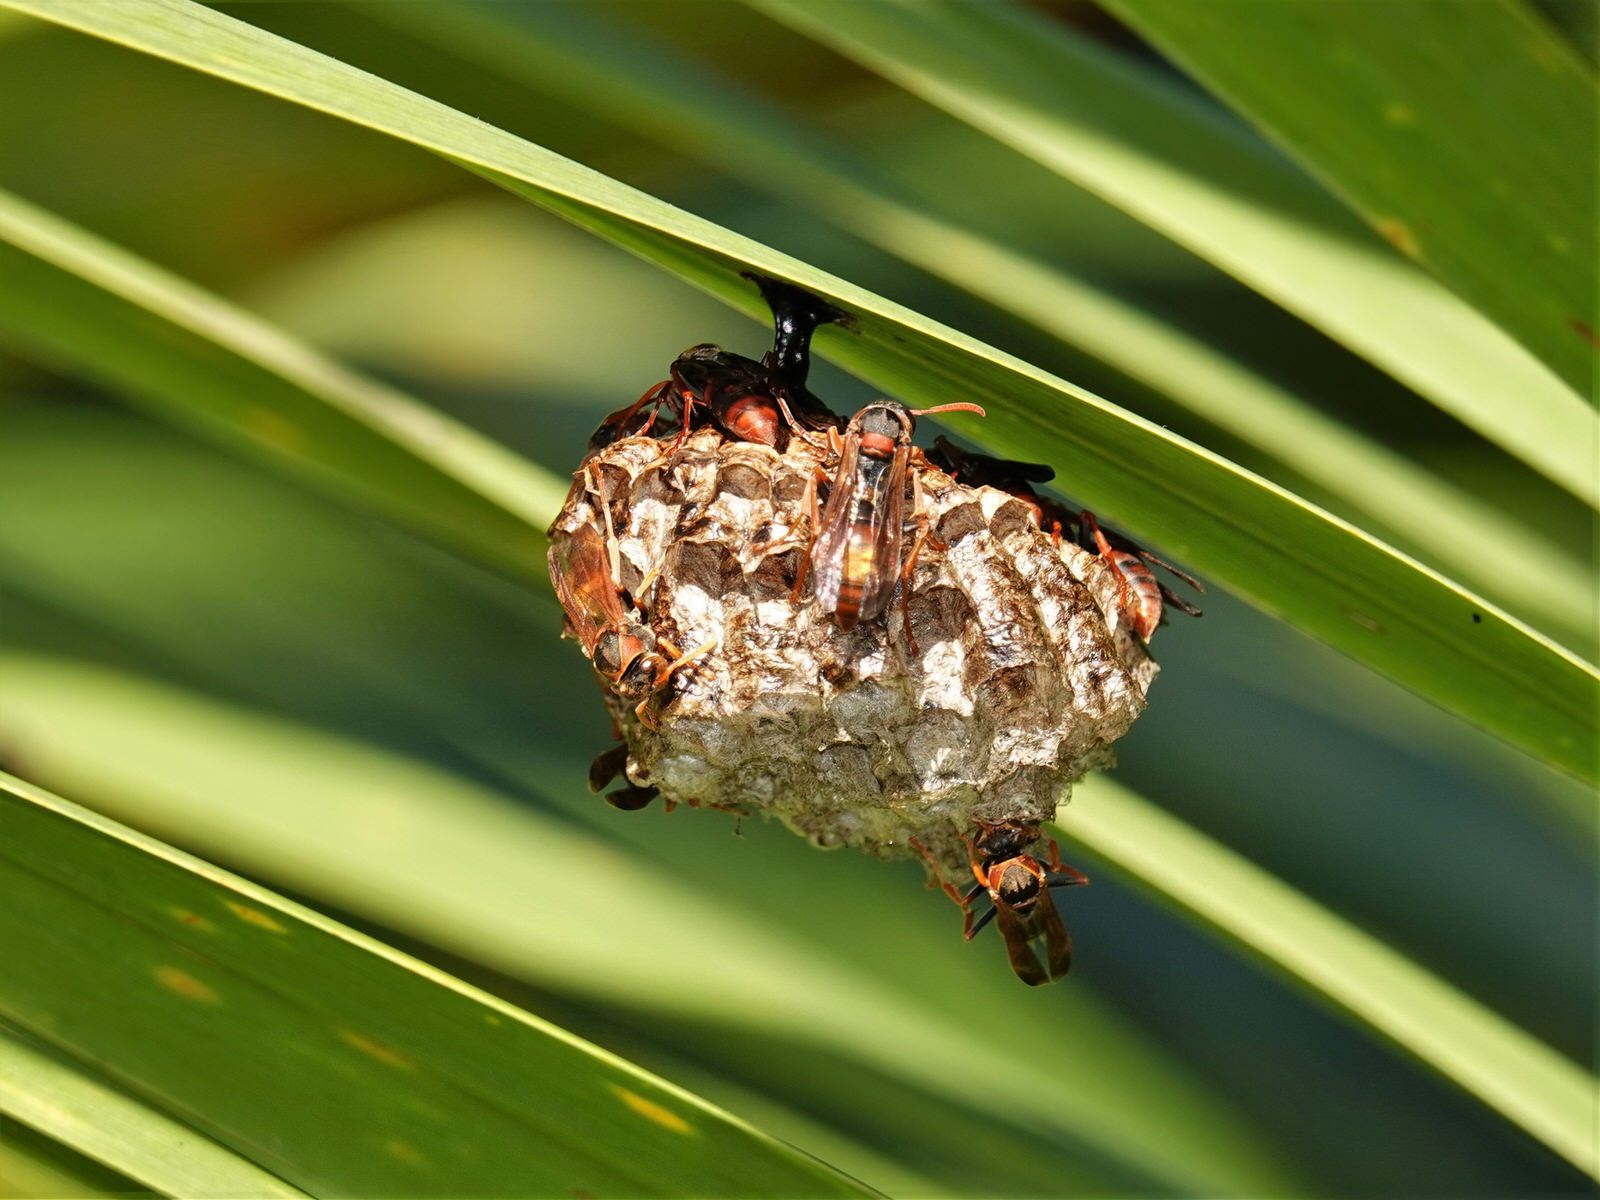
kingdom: Animalia
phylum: Arthropoda
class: Insecta
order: Hymenoptera
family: Eumenidae
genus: Polistes
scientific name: Polistes humilis
